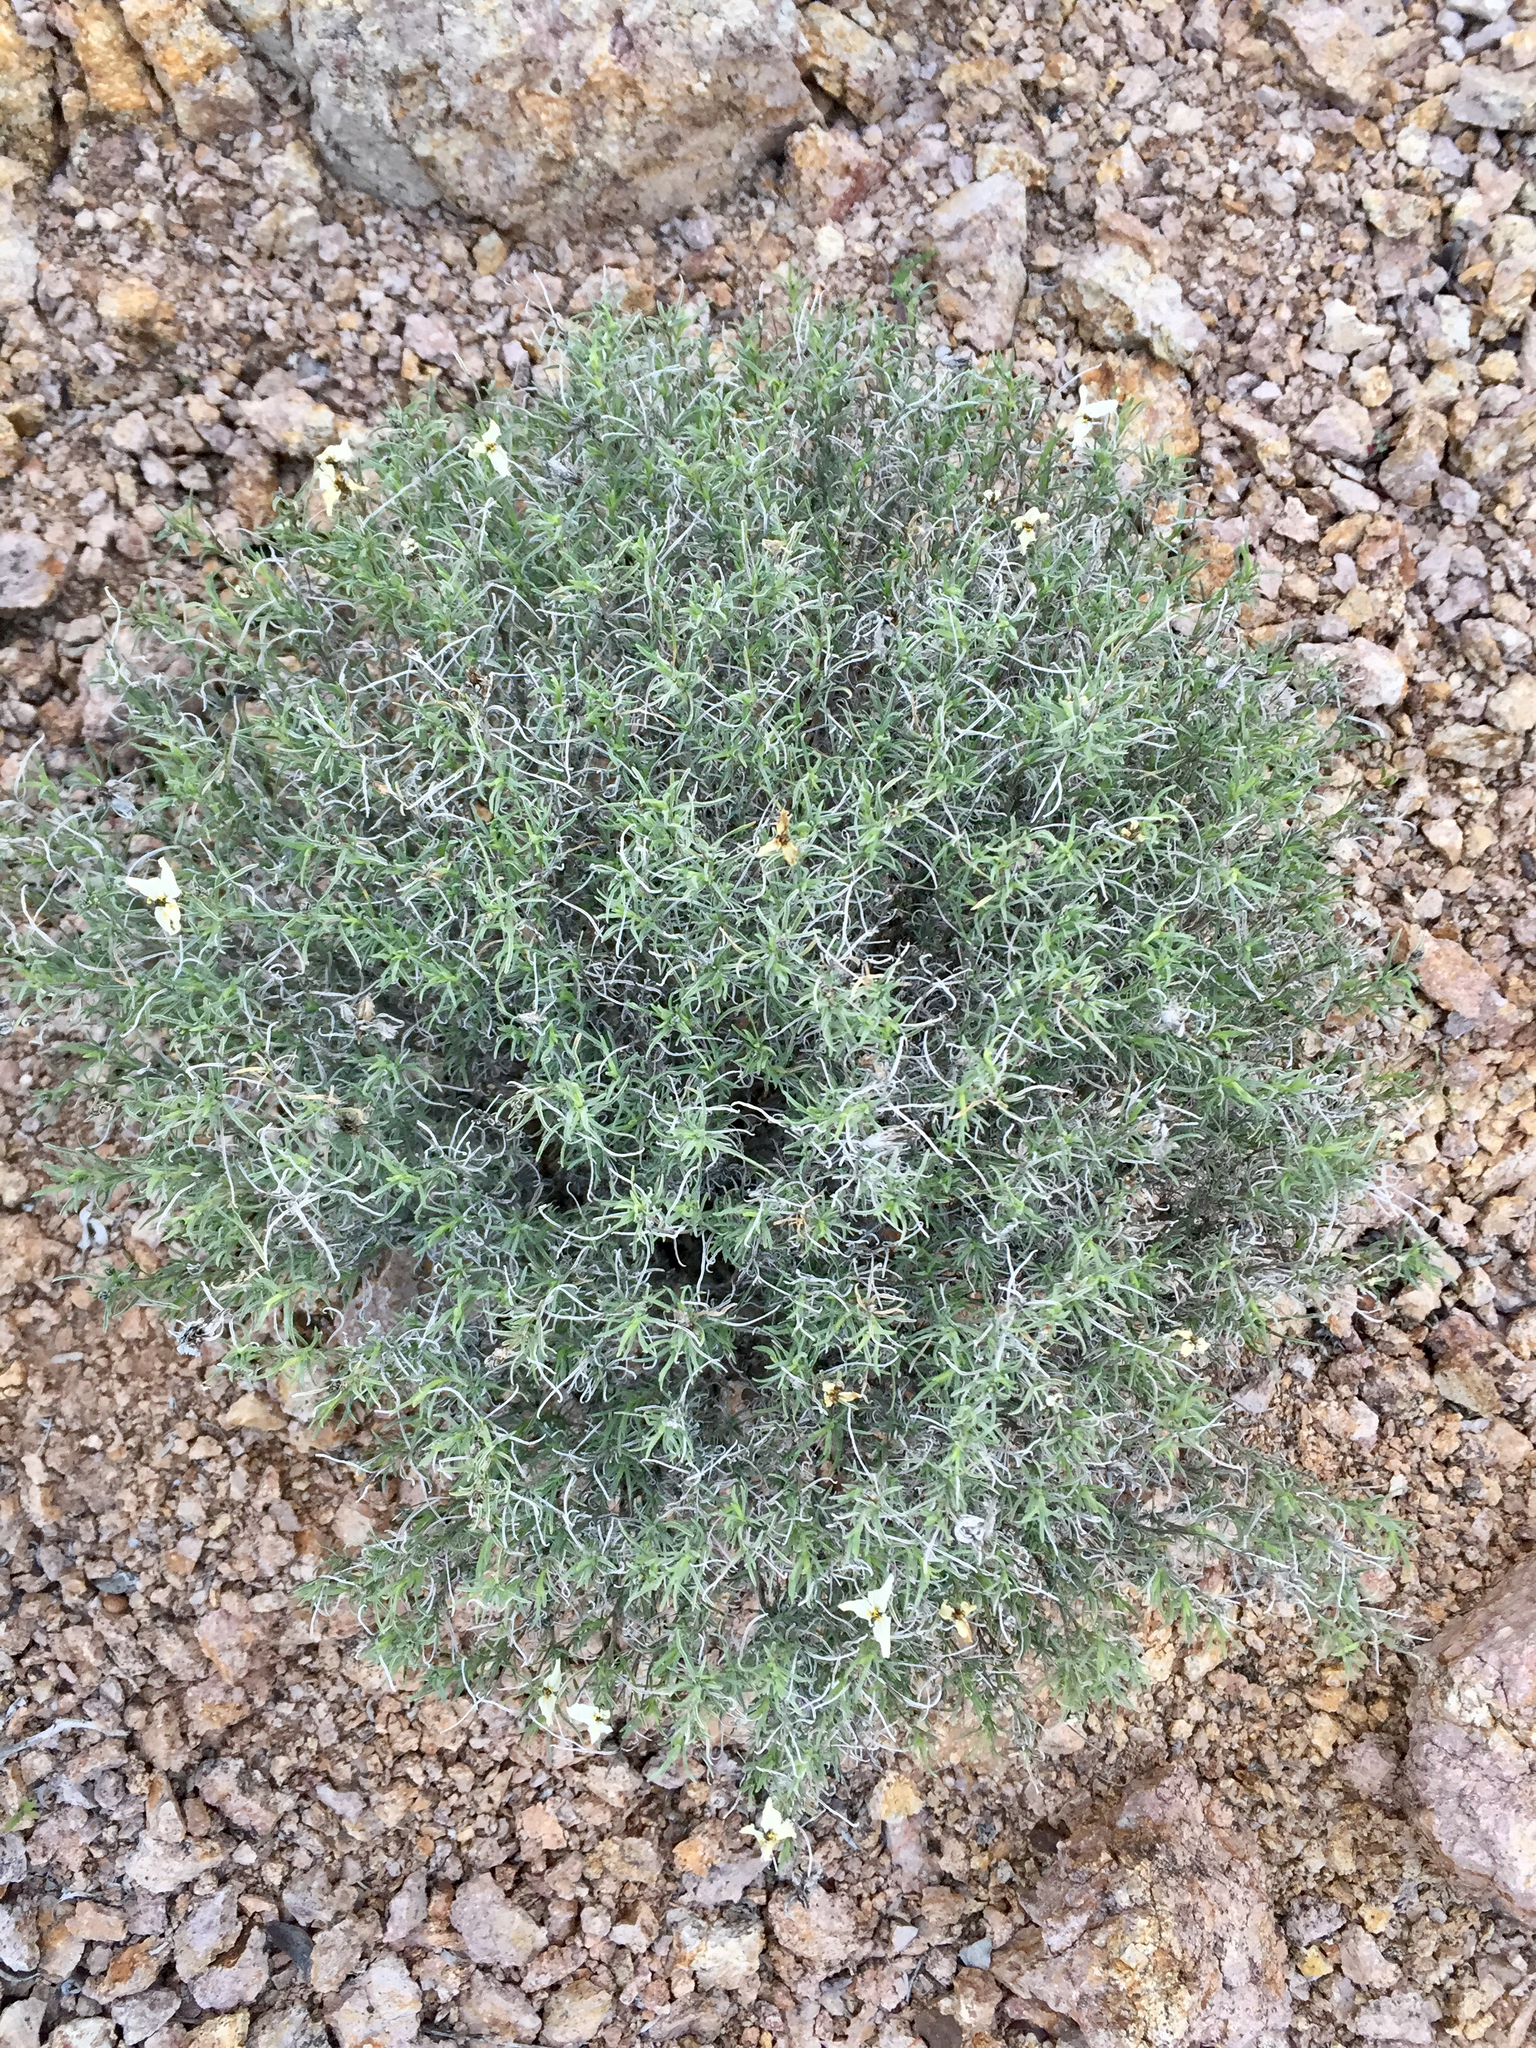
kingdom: Plantae
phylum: Tracheophyta
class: Magnoliopsida
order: Asterales
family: Asteraceae
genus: Zinnia
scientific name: Zinnia acerosa
